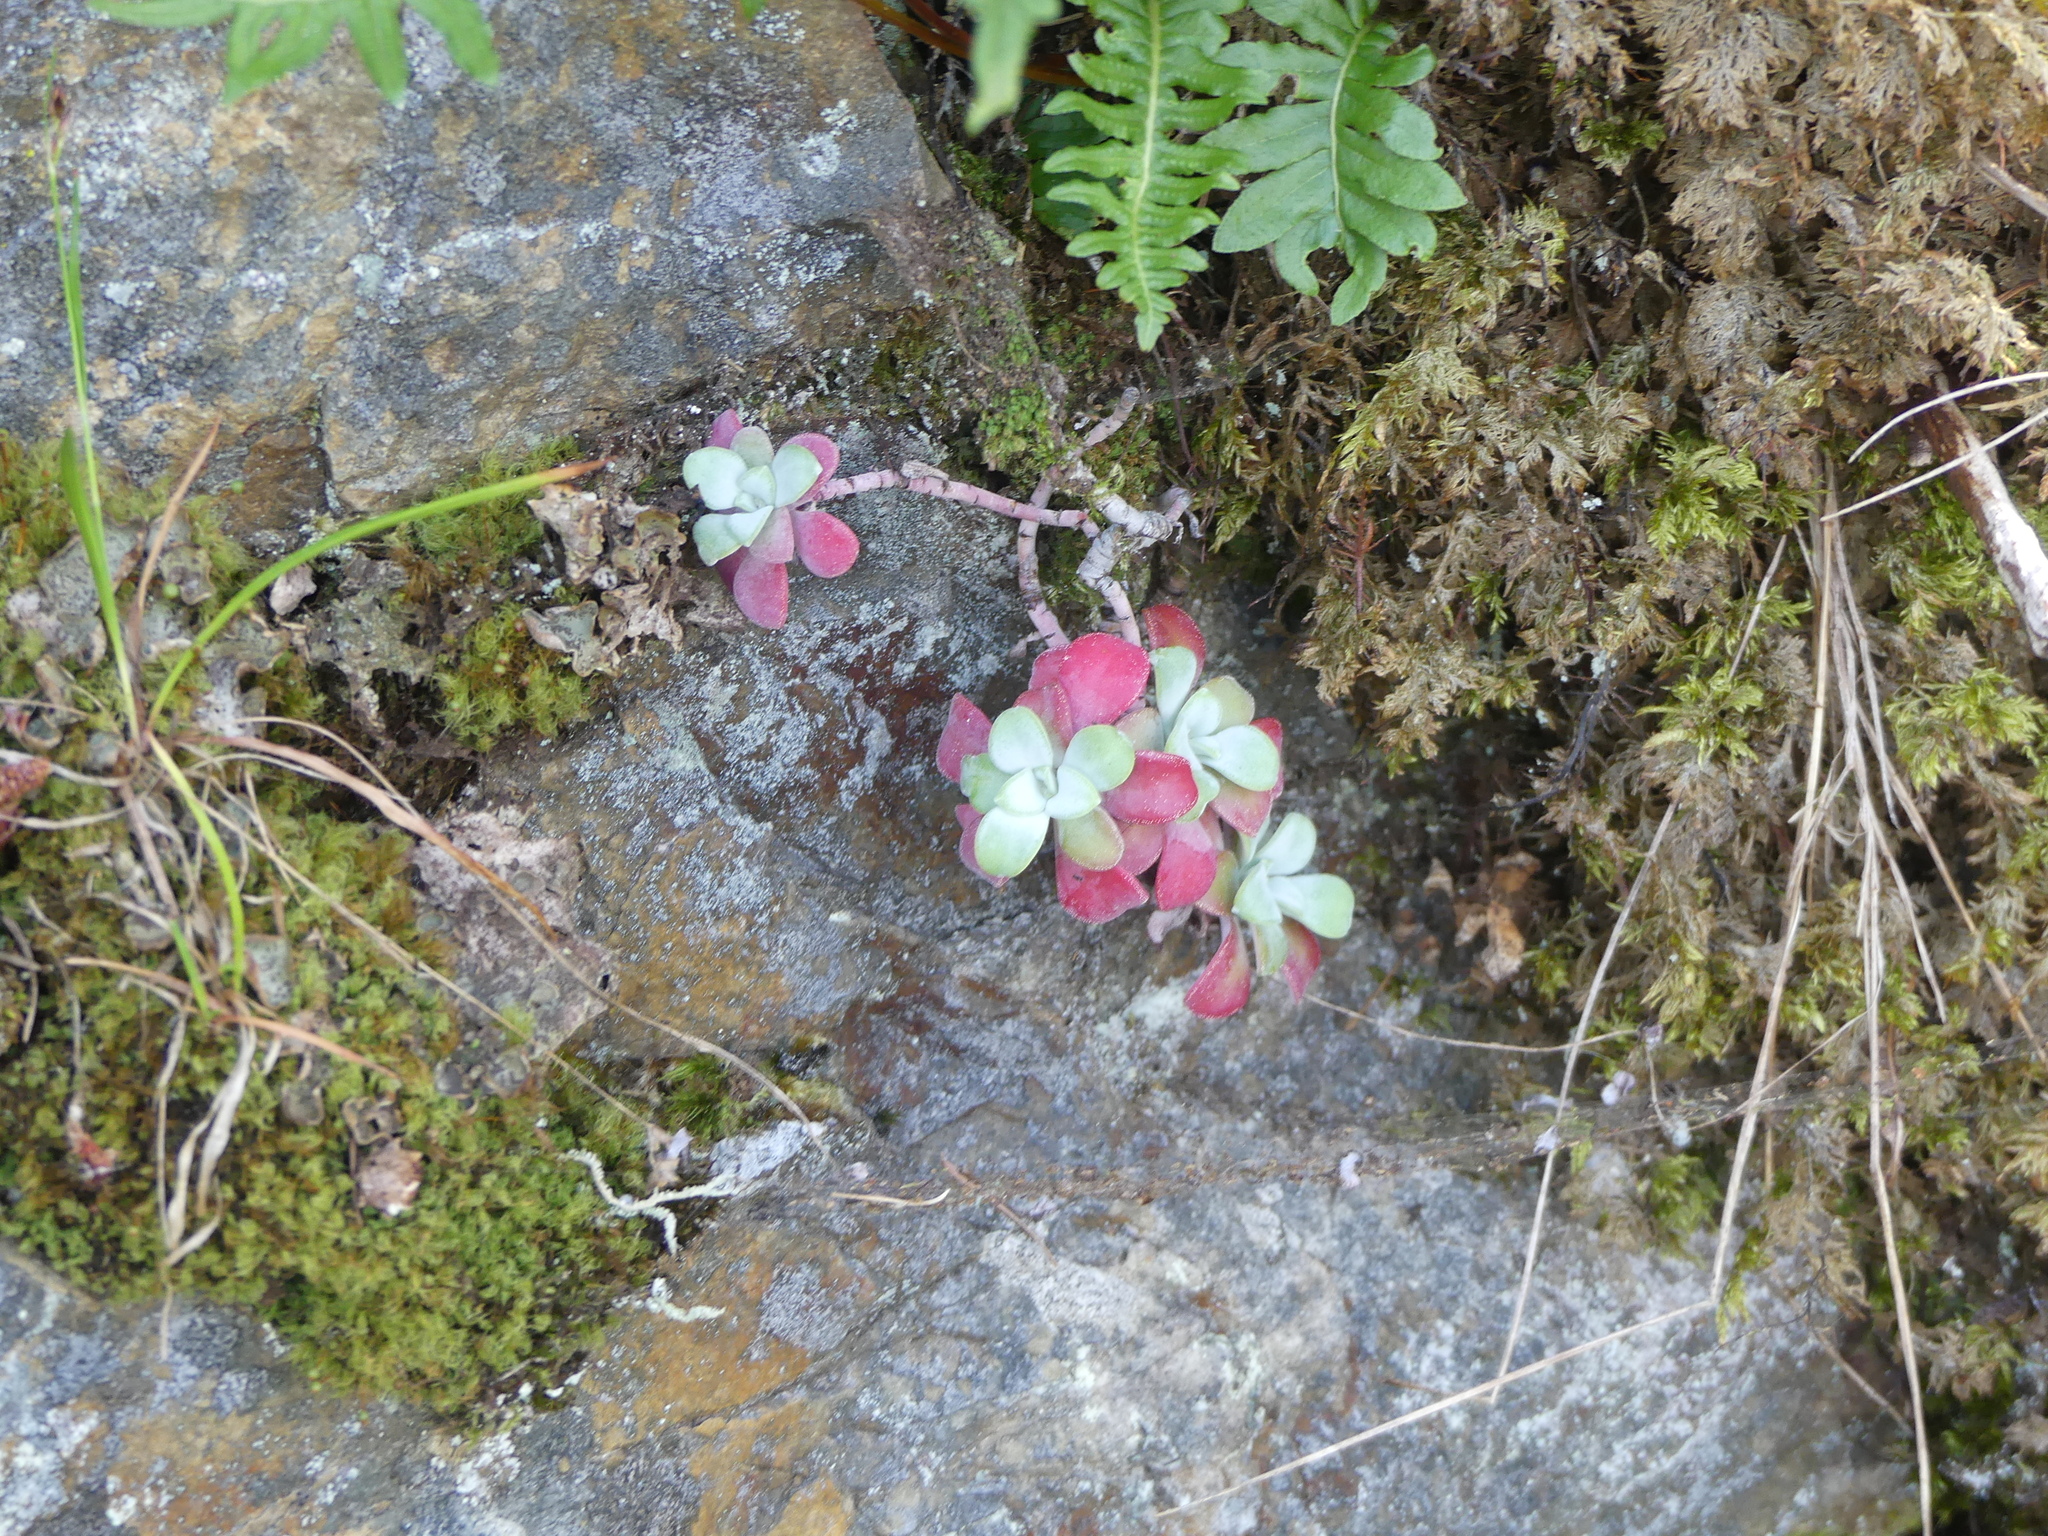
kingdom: Plantae
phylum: Tracheophyta
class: Magnoliopsida
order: Saxifragales
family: Crassulaceae
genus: Sedum
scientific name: Sedum spathulifolium
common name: Colorado stonecrop
